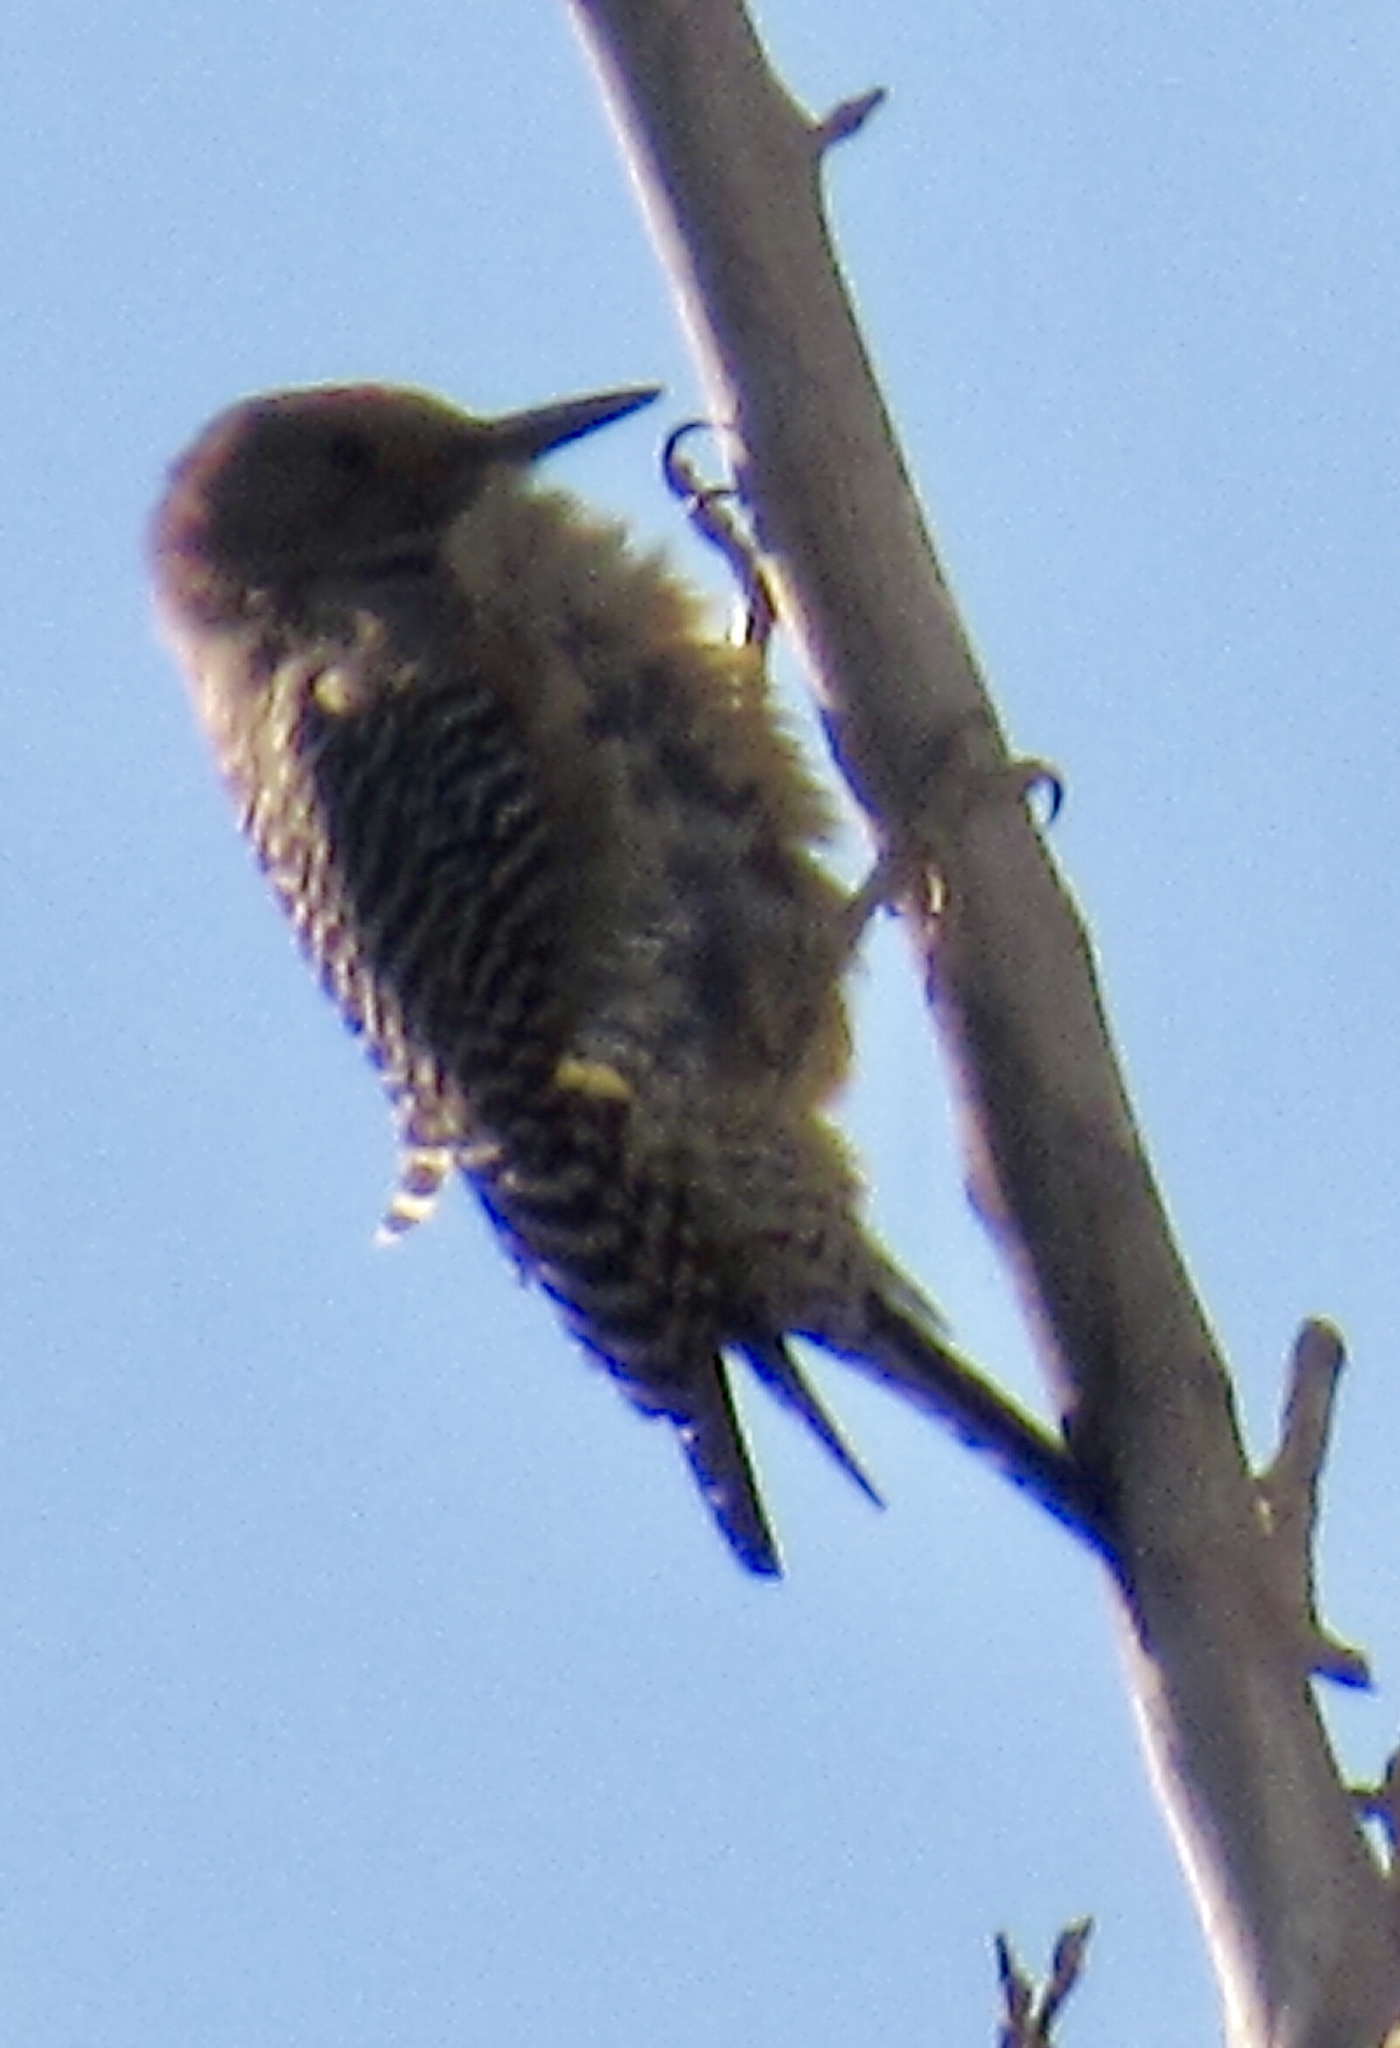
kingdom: Animalia
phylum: Chordata
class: Aves
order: Piciformes
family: Picidae
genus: Melanerpes
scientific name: Melanerpes uropygialis
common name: Gila woodpecker
